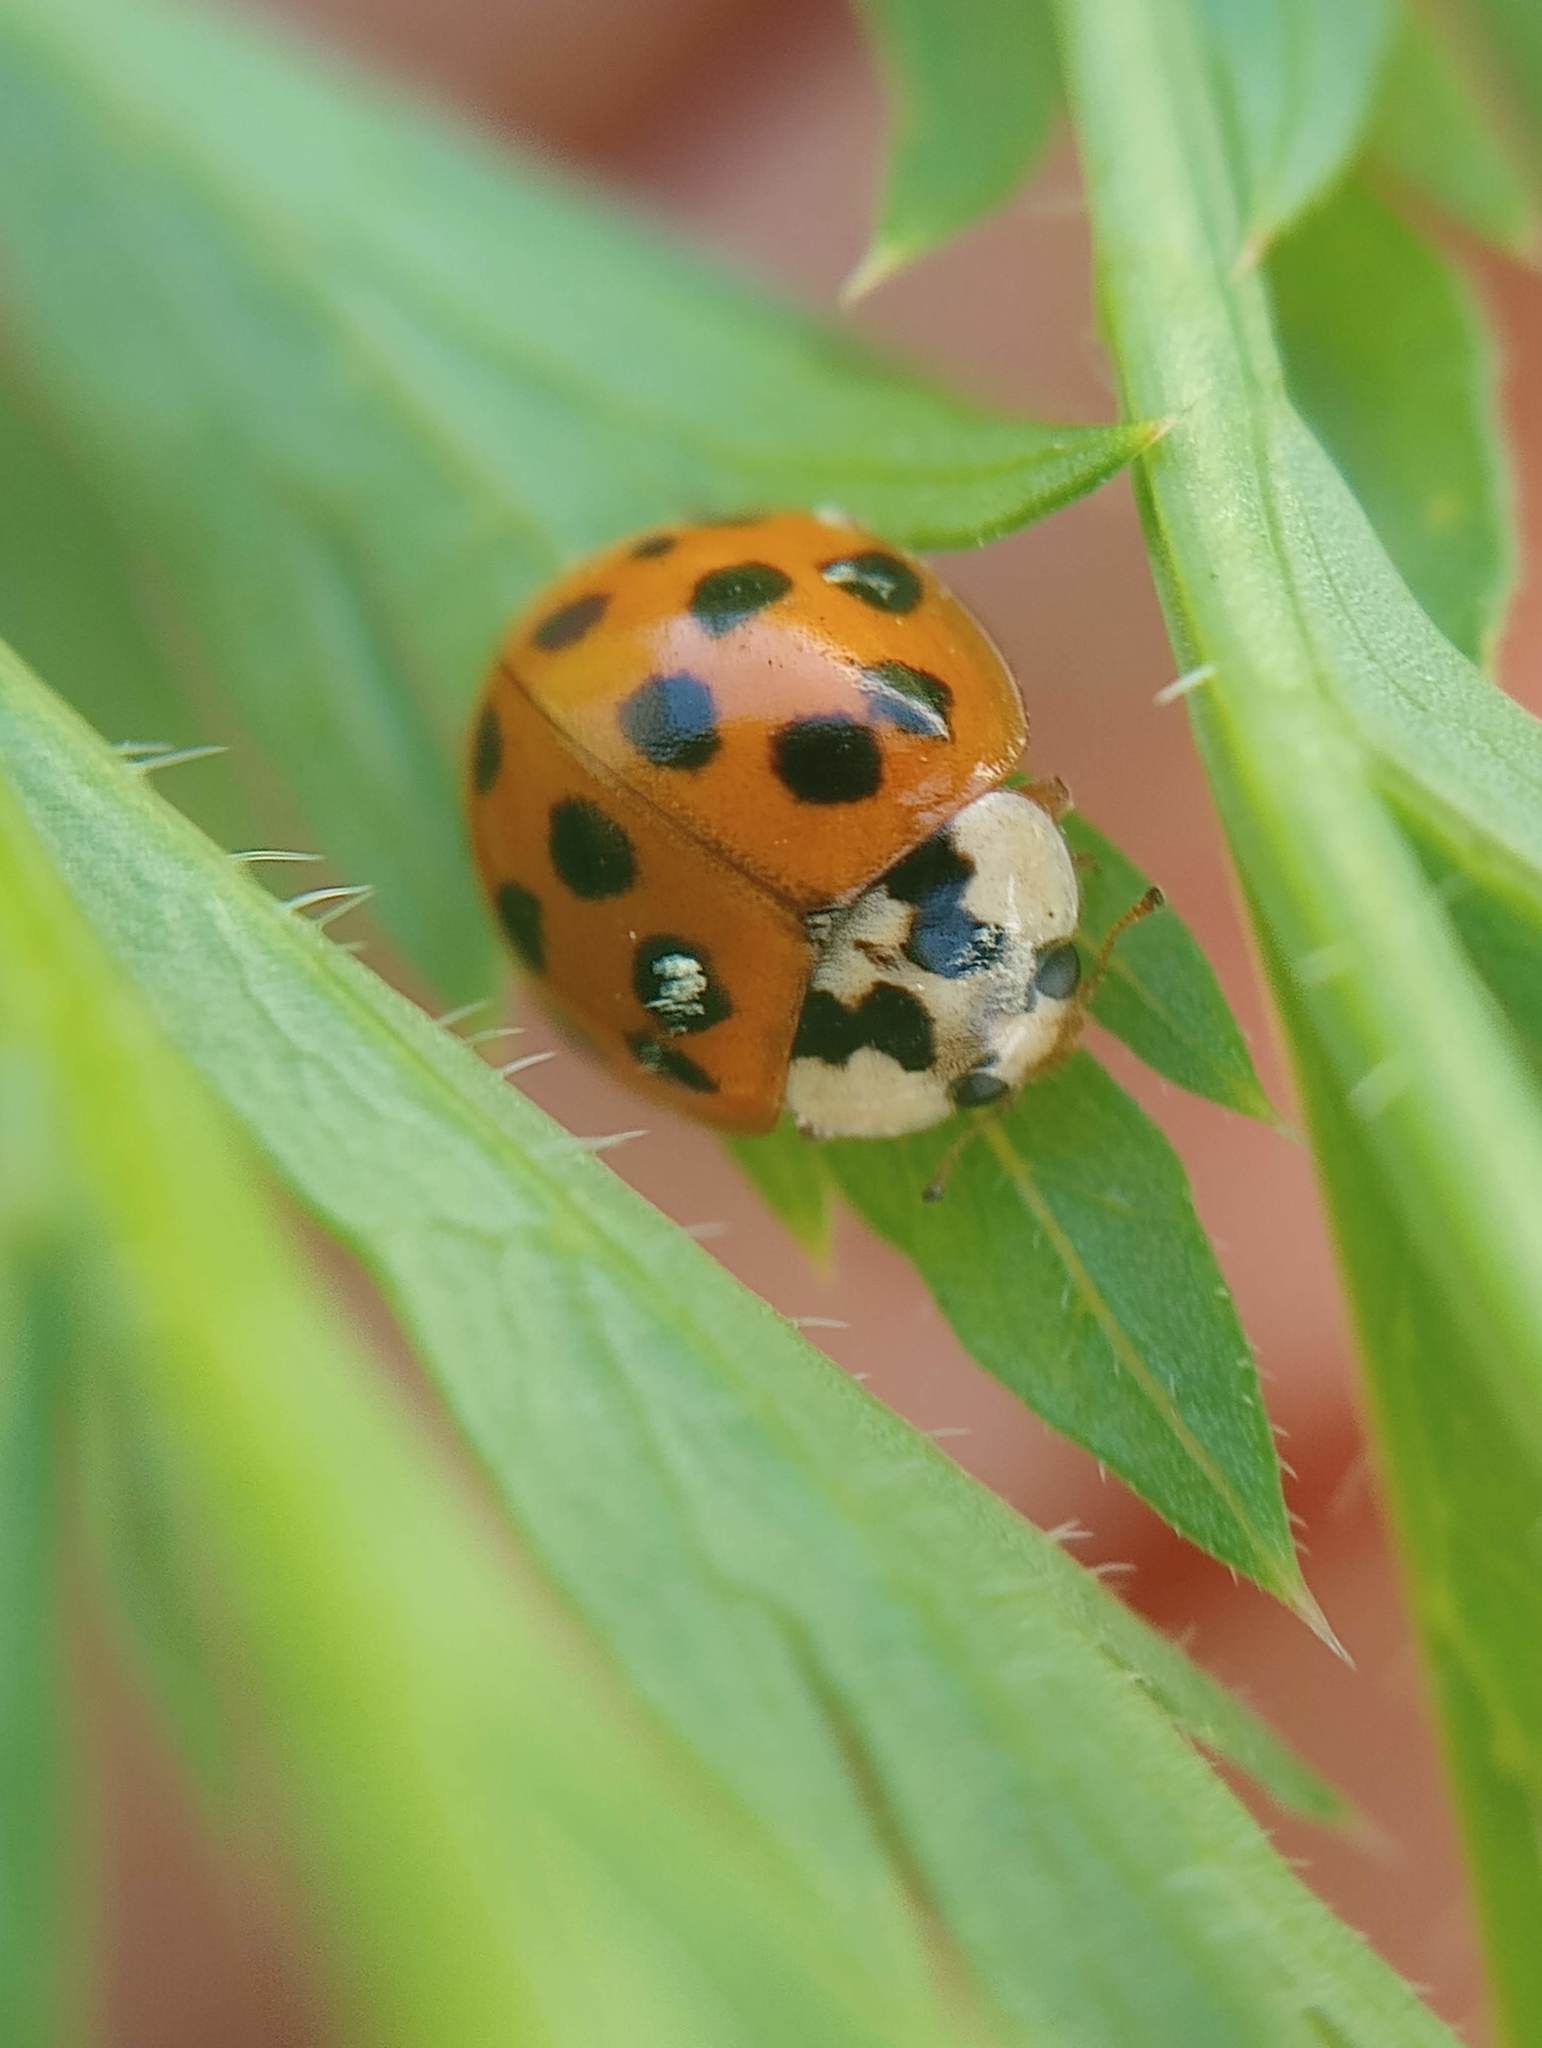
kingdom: Animalia
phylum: Arthropoda
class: Insecta
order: Coleoptera
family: Coccinellidae
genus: Harmonia
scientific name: Harmonia axyridis
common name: Harlequin ladybird
